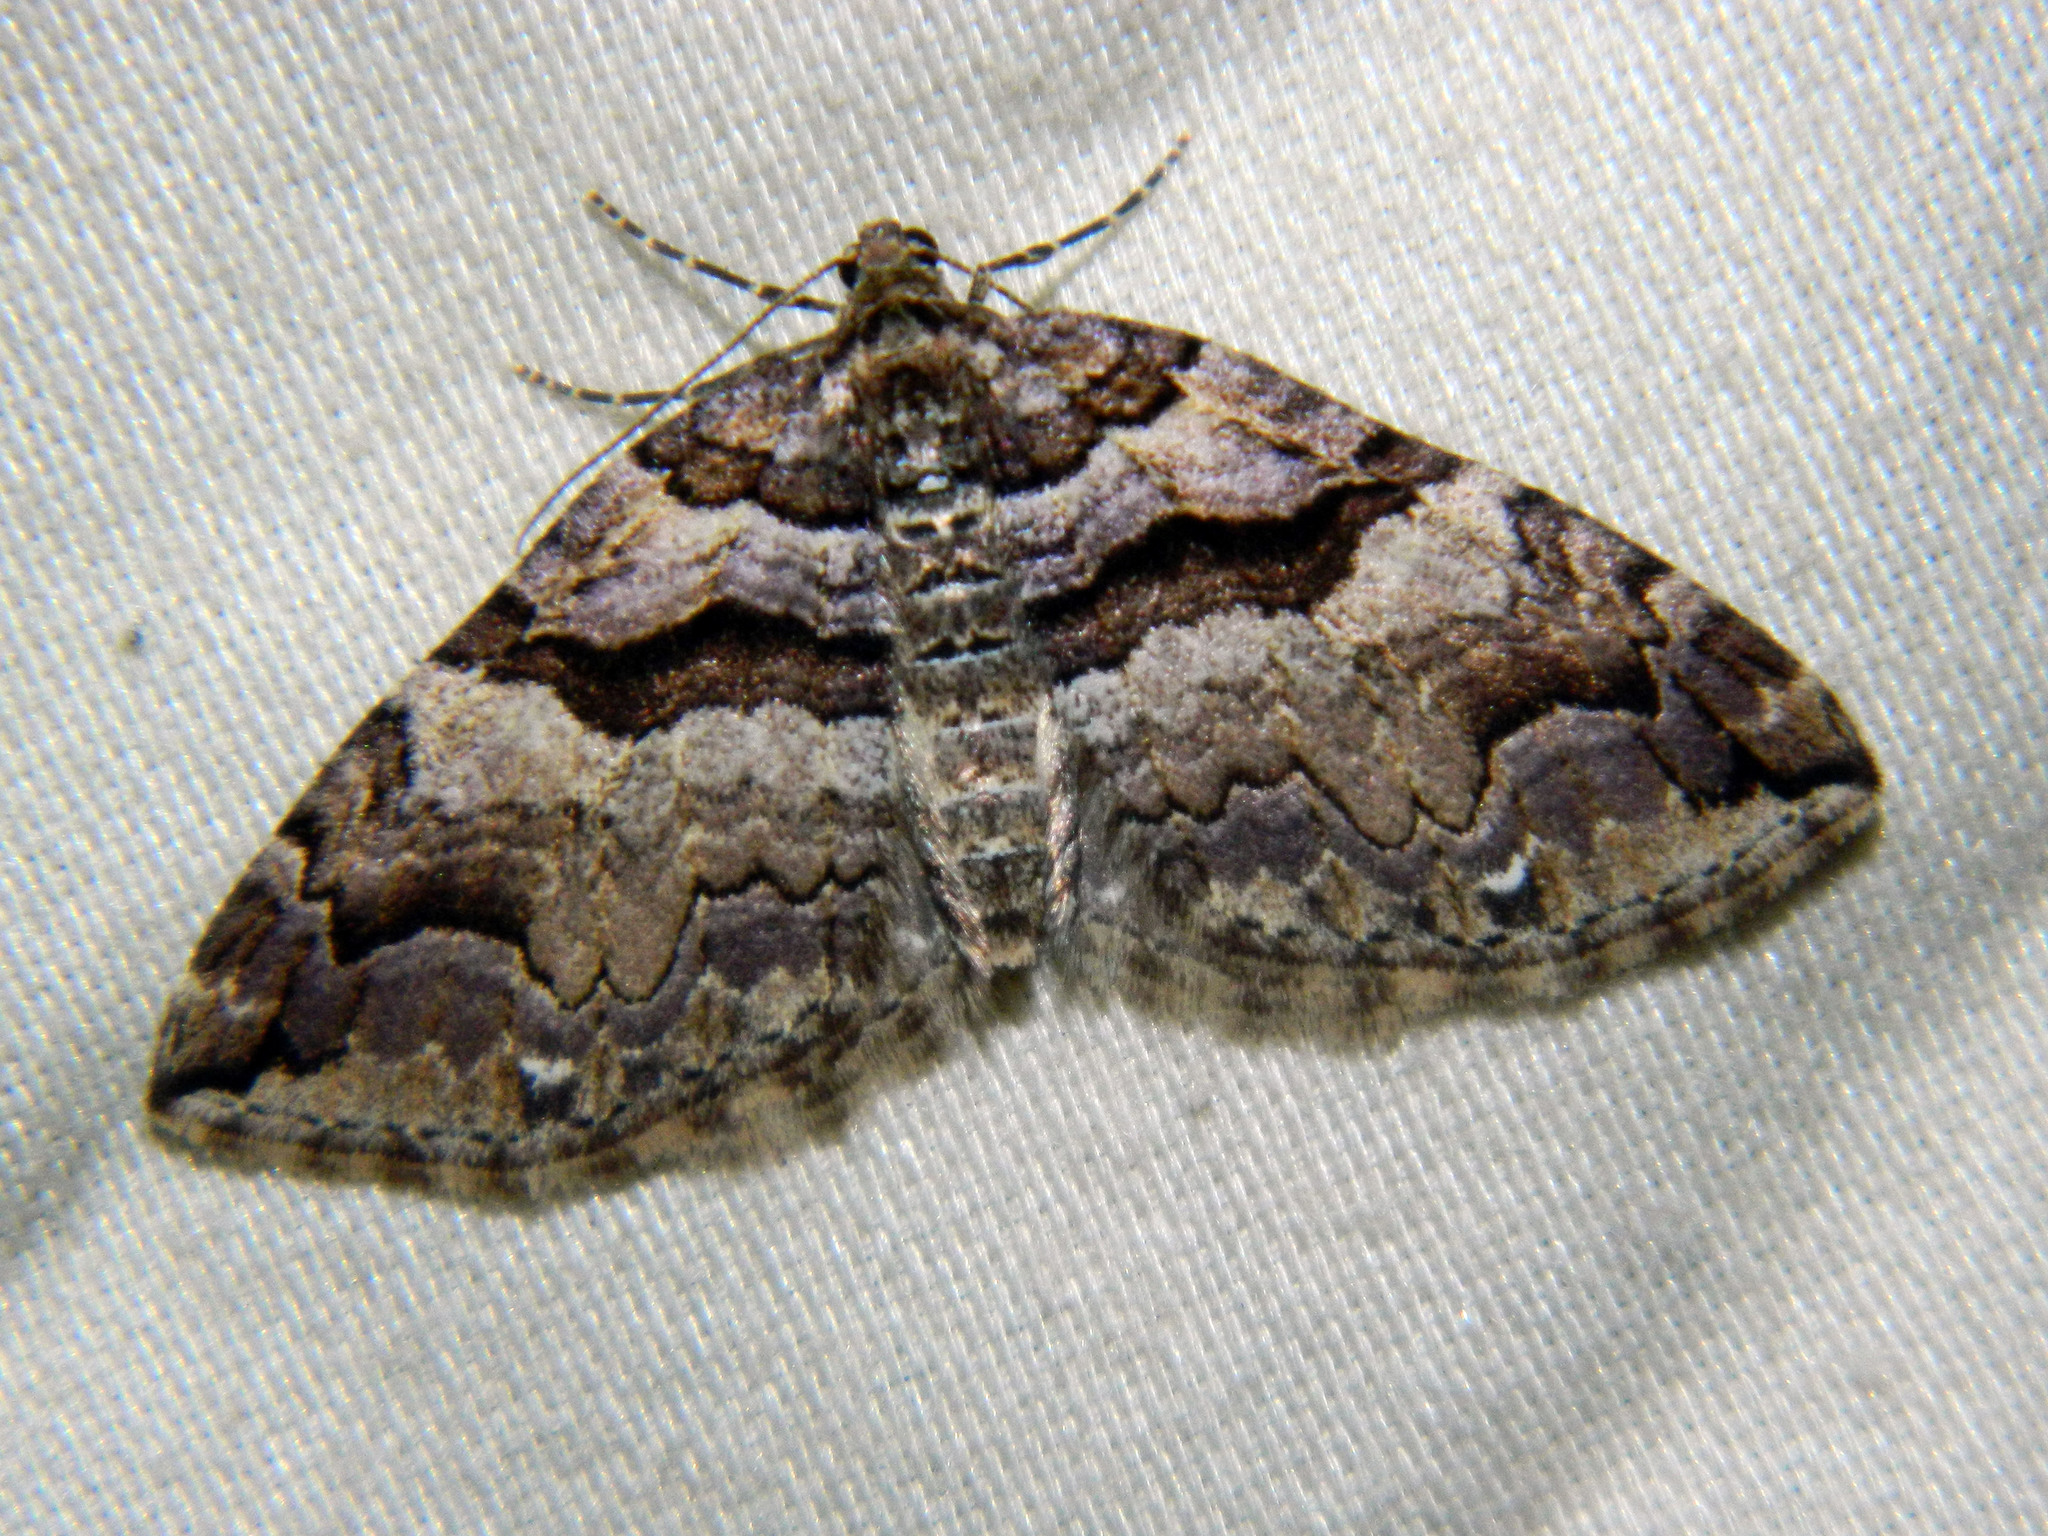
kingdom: Animalia
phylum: Arthropoda
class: Insecta
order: Lepidoptera
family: Geometridae
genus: Anticlea
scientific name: Anticlea vasiliata
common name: Variable carpet
